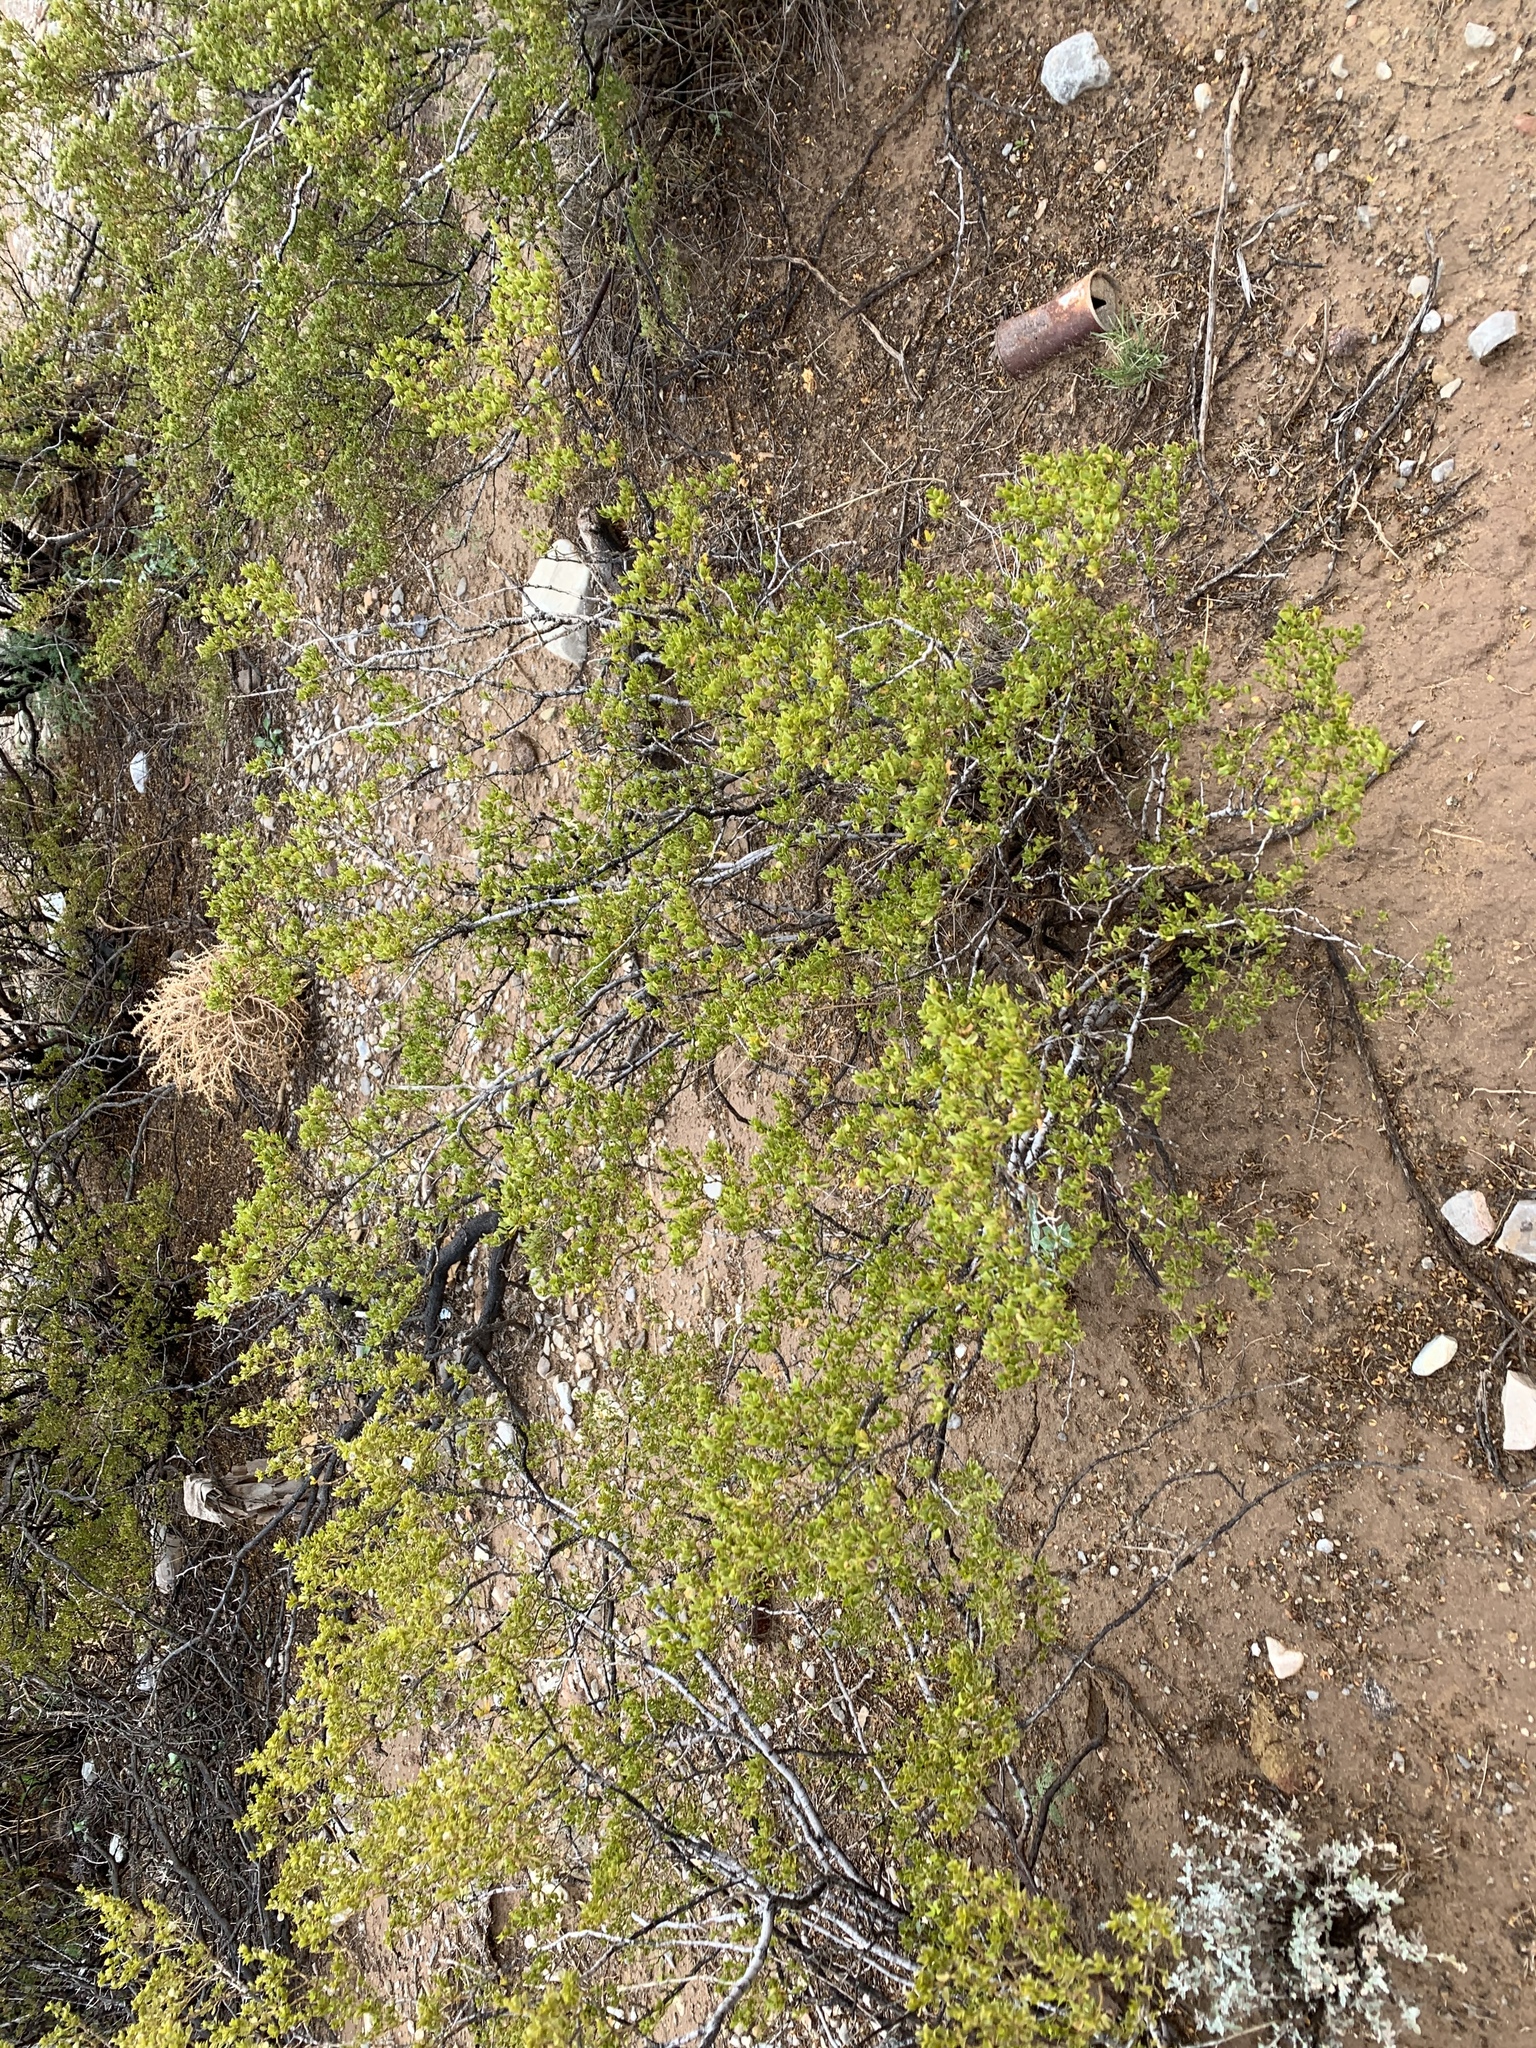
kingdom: Plantae
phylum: Tracheophyta
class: Magnoliopsida
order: Zygophyllales
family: Zygophyllaceae
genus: Larrea
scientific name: Larrea tridentata
